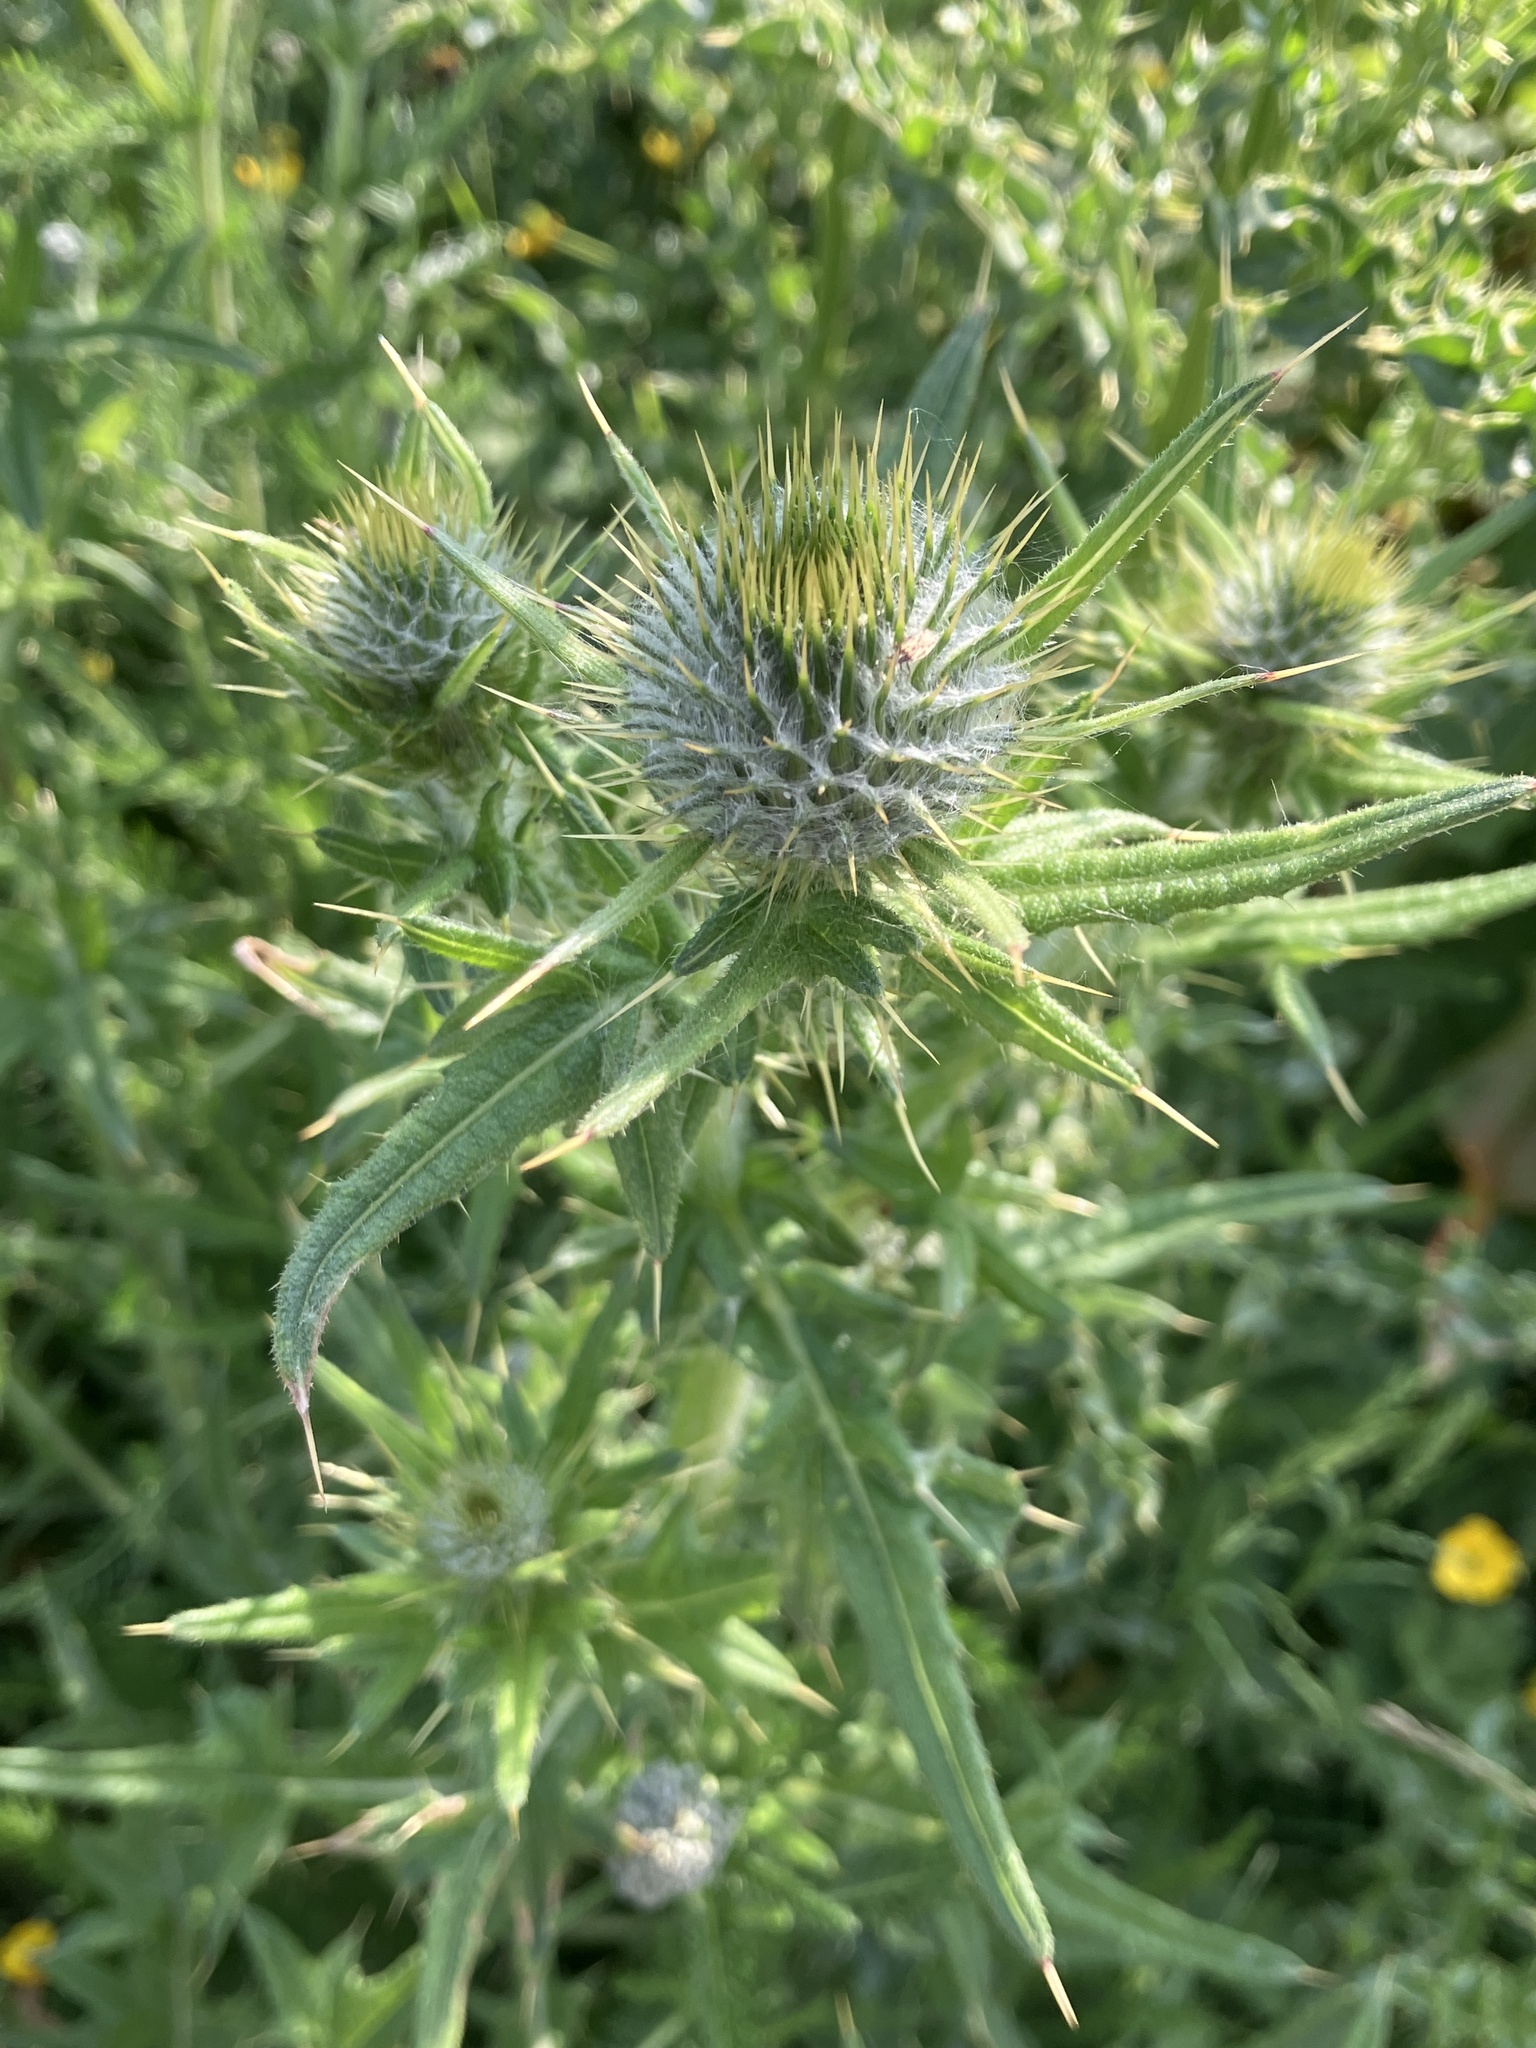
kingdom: Plantae
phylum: Tracheophyta
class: Magnoliopsida
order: Asterales
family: Asteraceae
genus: Cirsium
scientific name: Cirsium vulgare
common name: Bull thistle
